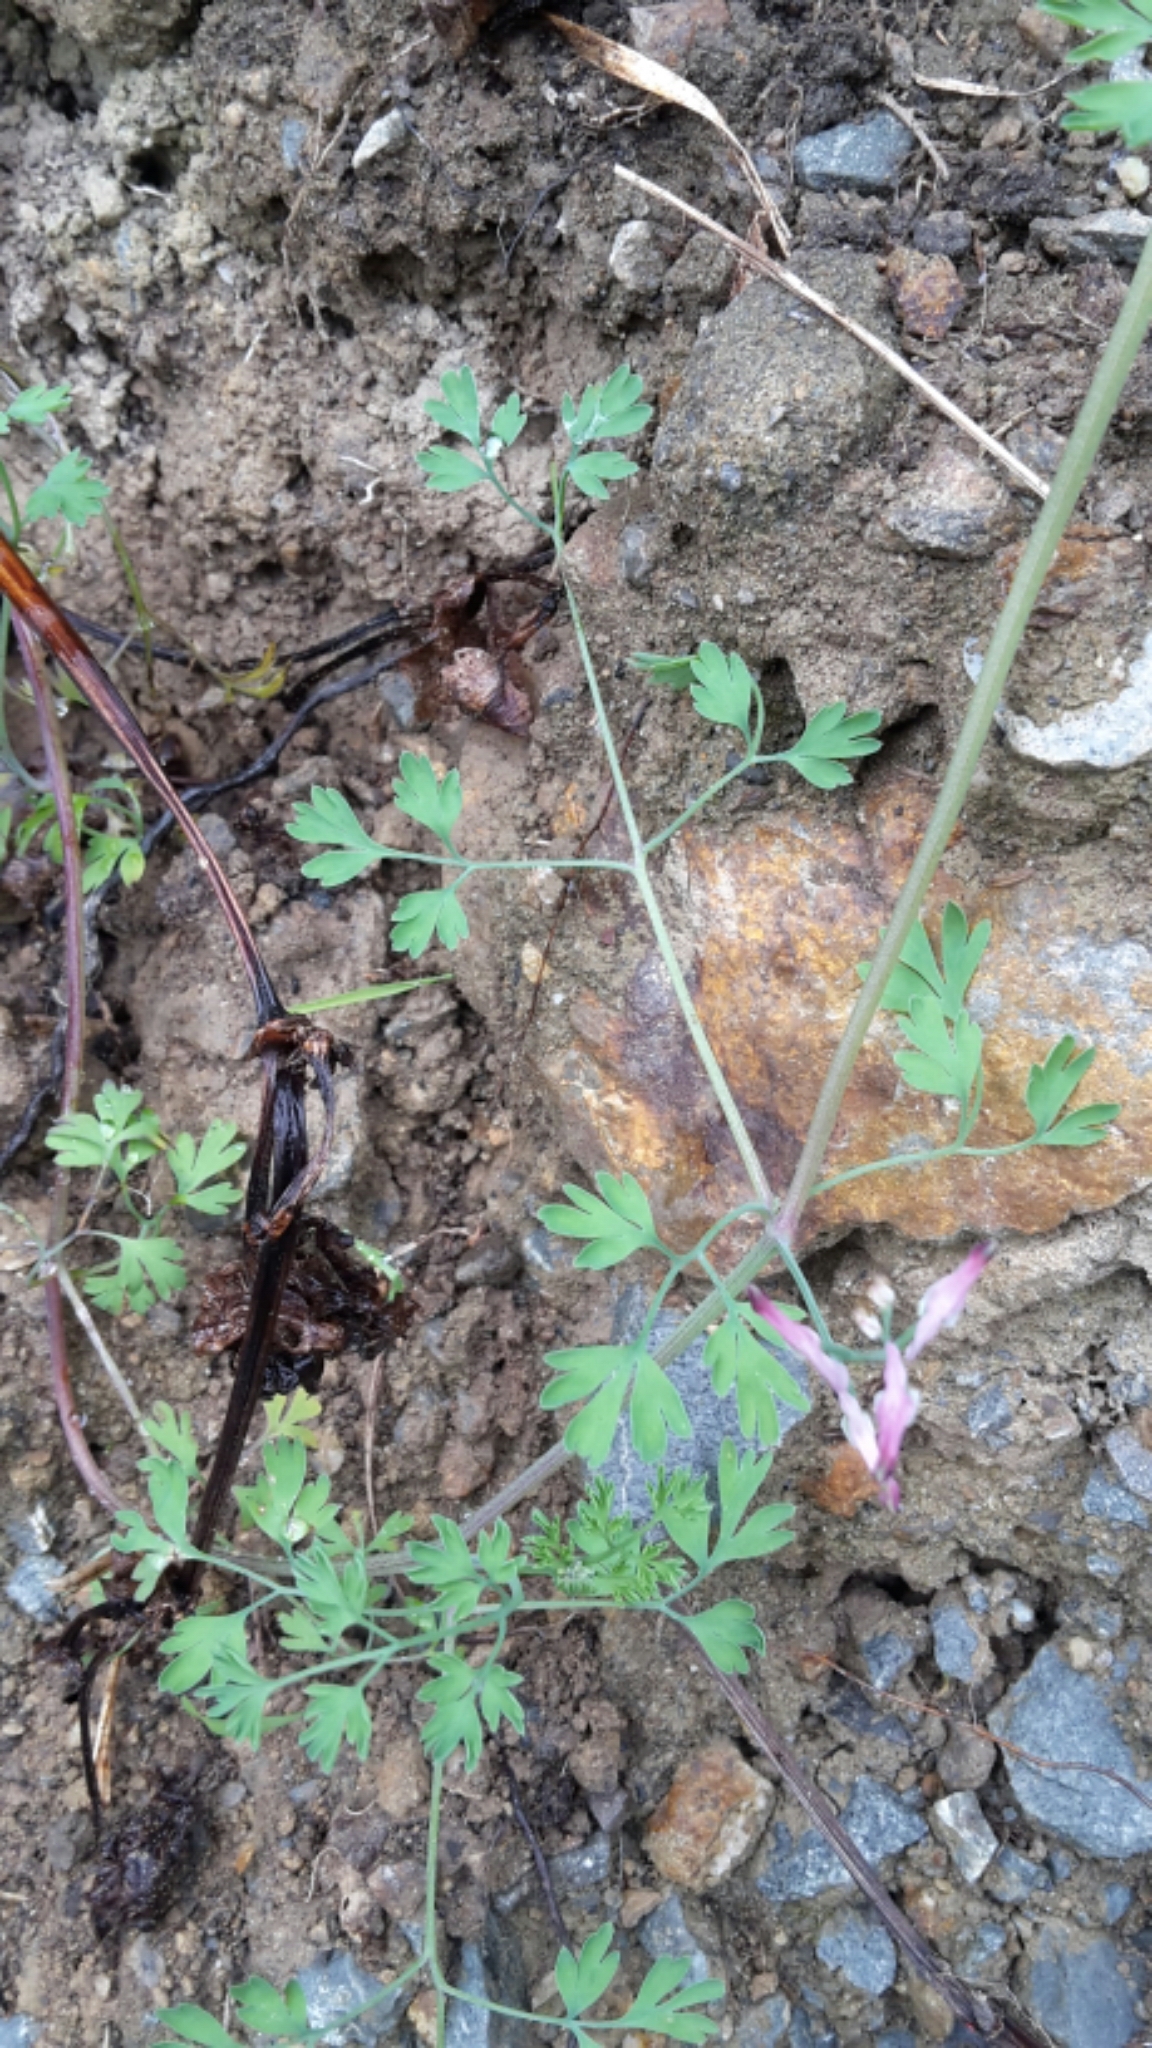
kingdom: Plantae
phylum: Tracheophyta
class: Magnoliopsida
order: Ranunculales
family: Papaveraceae
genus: Fumaria
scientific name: Fumaria muralis
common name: Common ramping-fumitory
